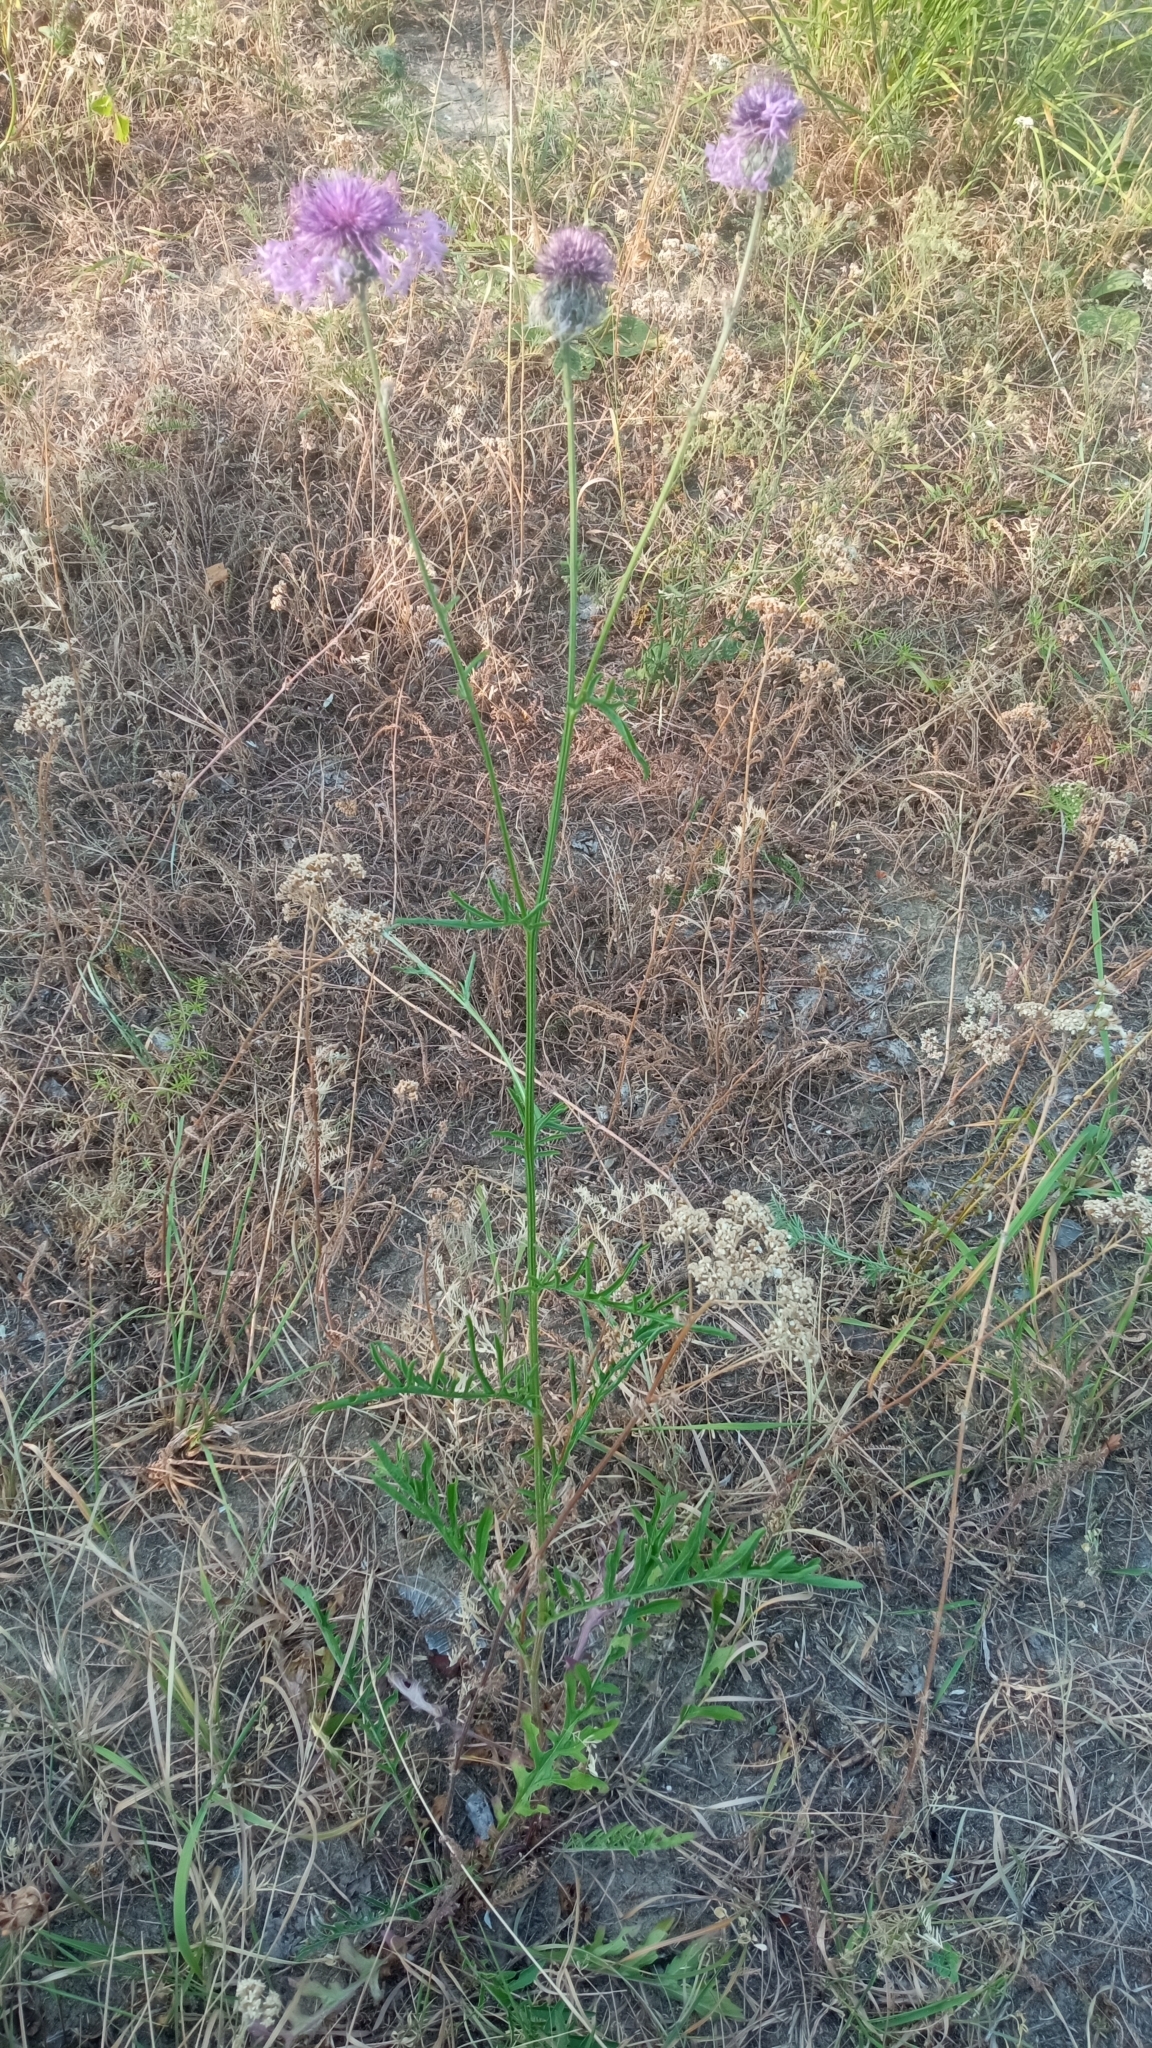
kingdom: Plantae
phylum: Tracheophyta
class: Magnoliopsida
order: Asterales
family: Asteraceae
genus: Centaurea
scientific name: Centaurea scabiosa
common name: Greater knapweed
